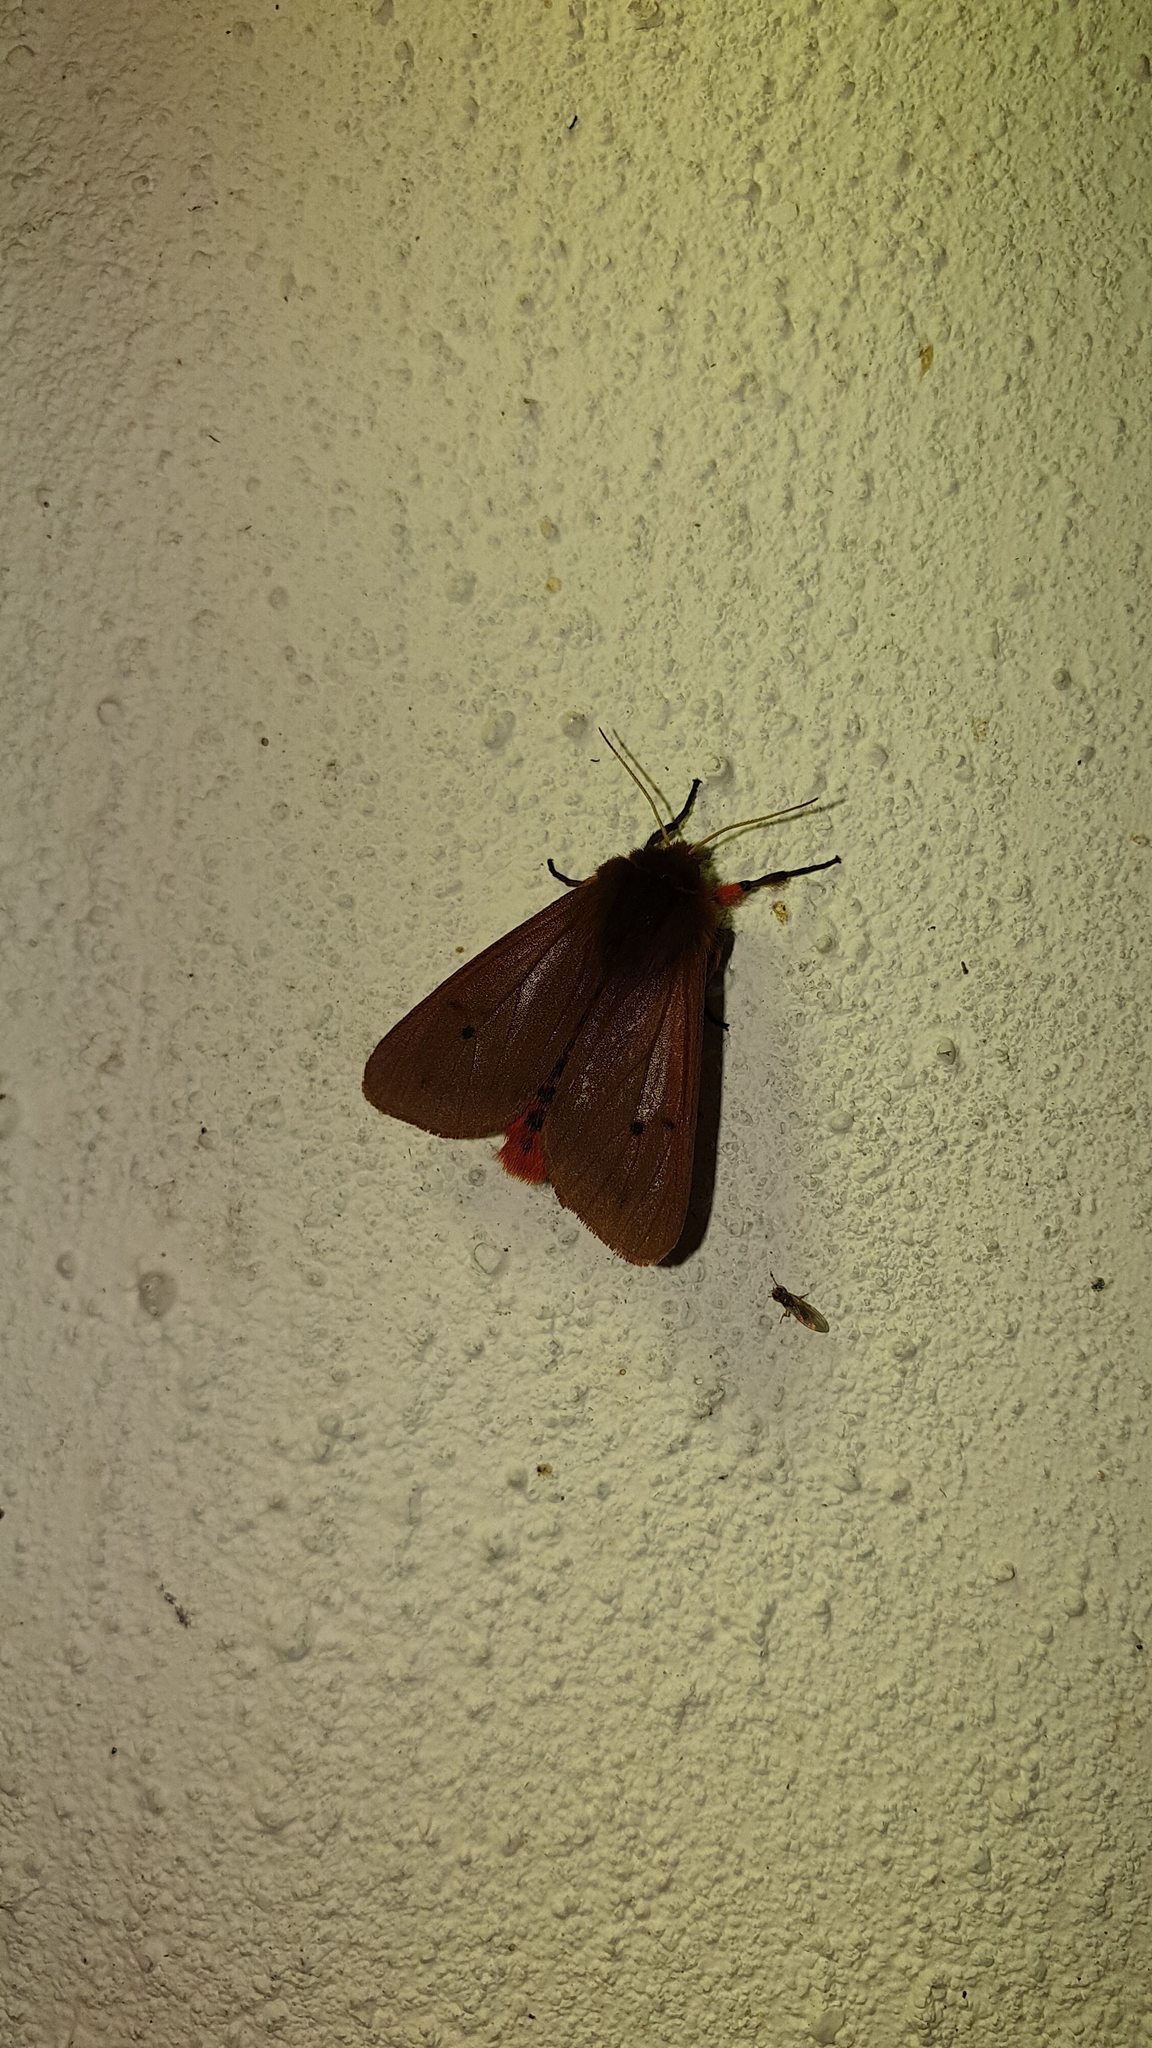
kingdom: Animalia
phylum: Arthropoda
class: Insecta
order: Lepidoptera
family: Erebidae
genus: Phragmatobia
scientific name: Phragmatobia fuliginosa
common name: Ruby tiger
